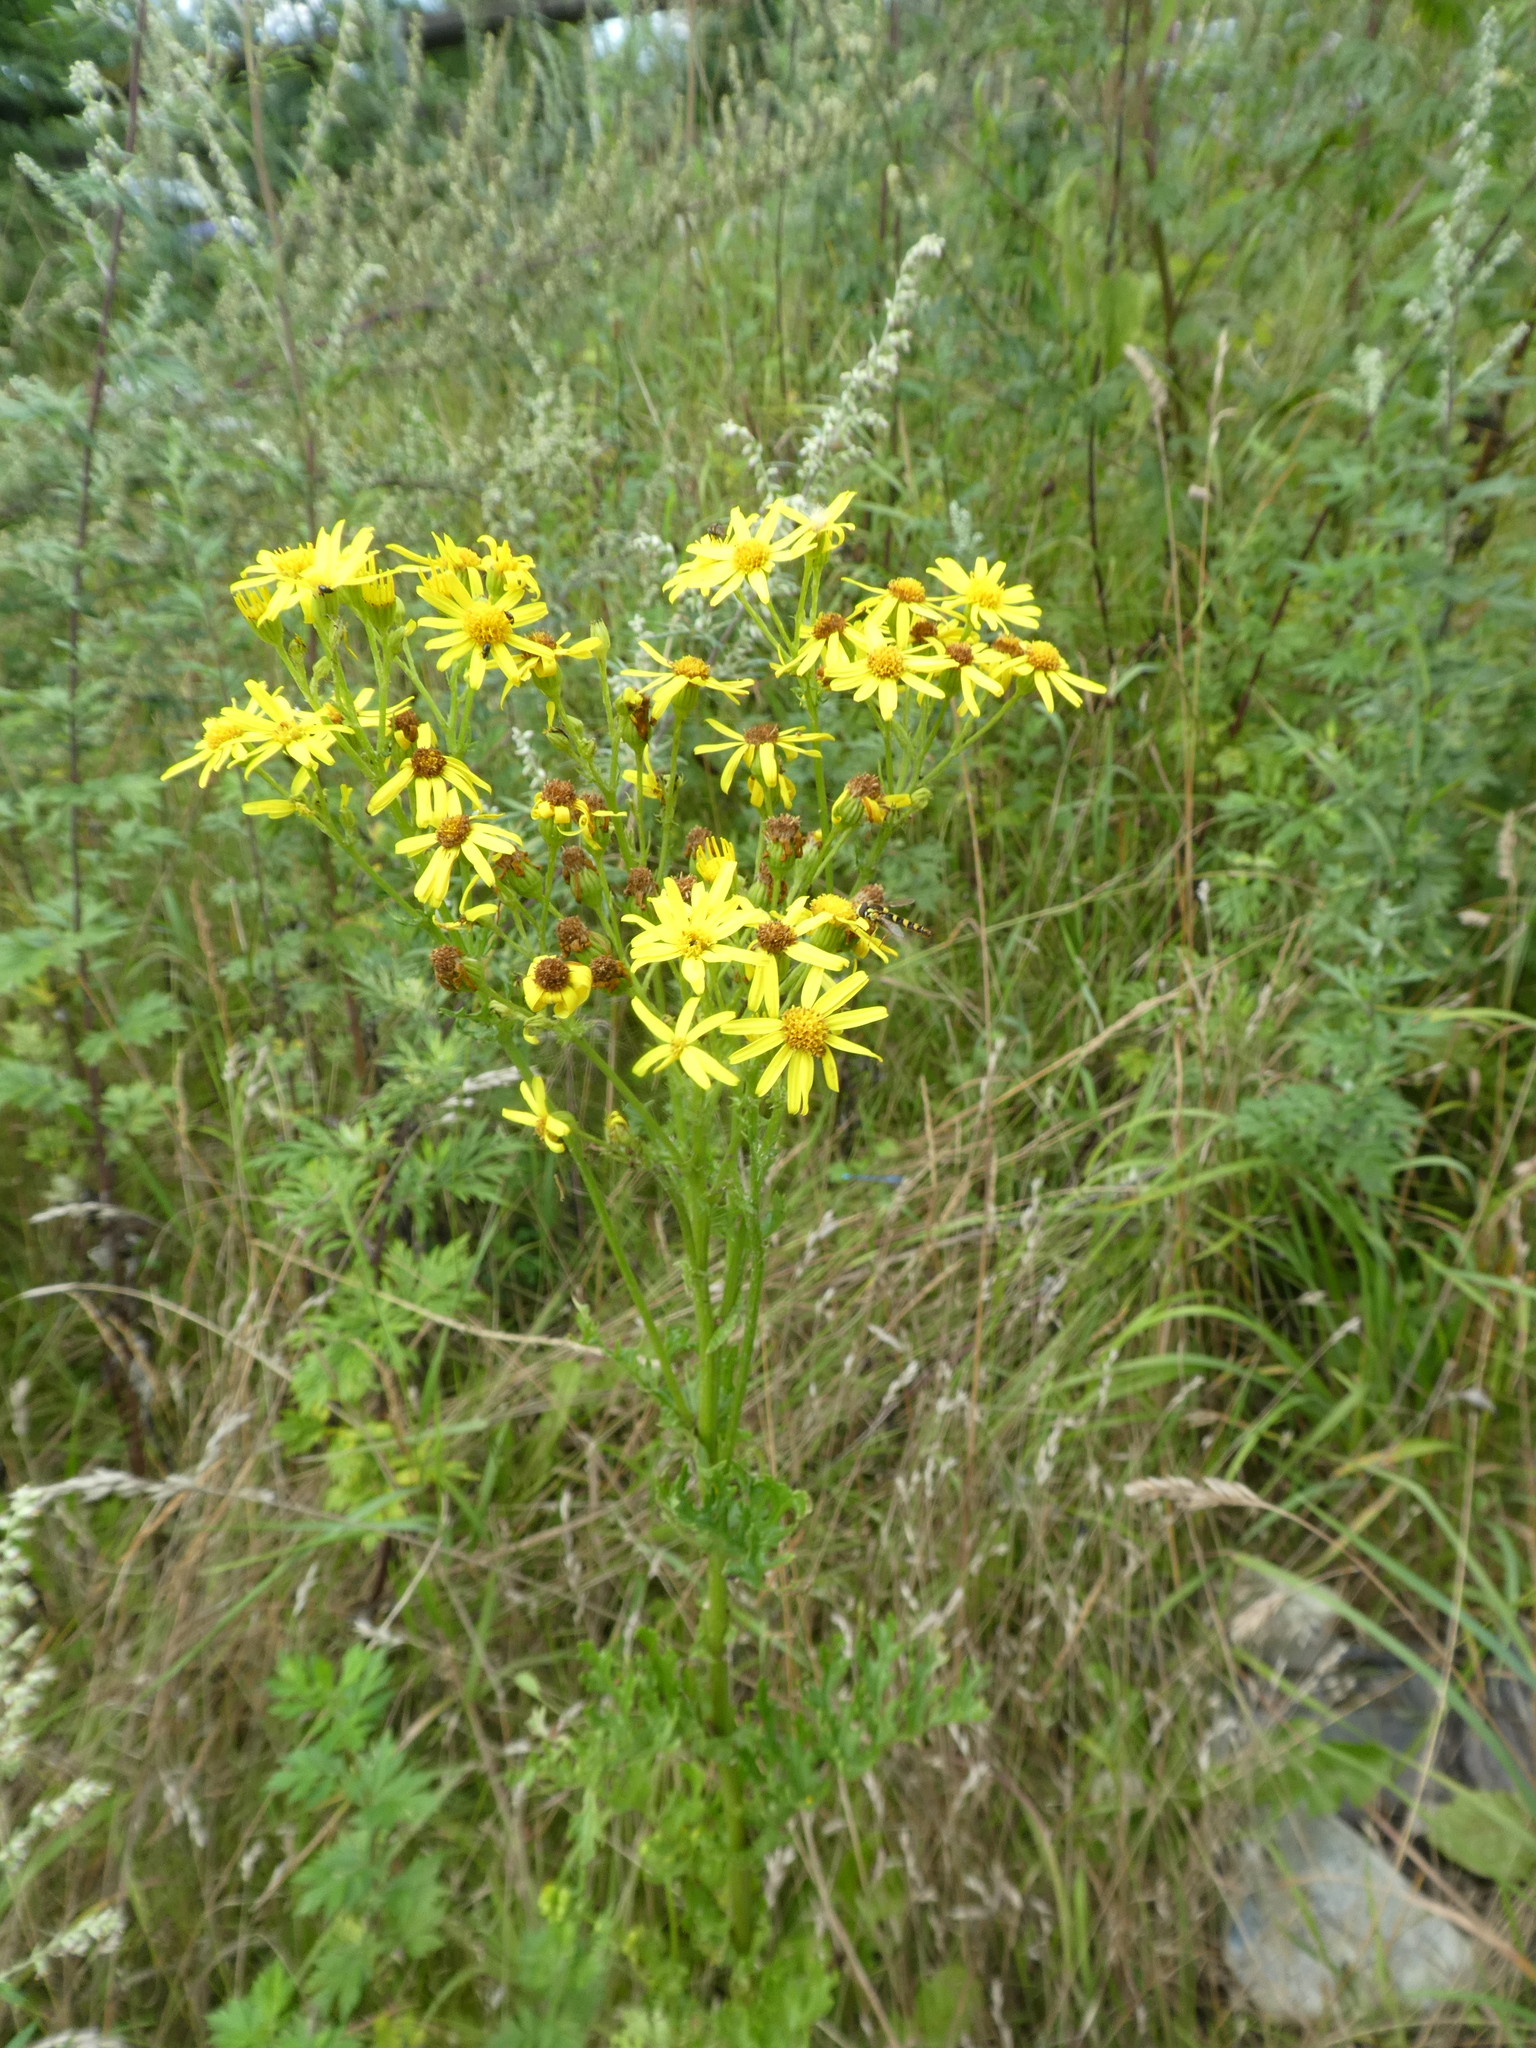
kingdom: Plantae
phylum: Tracheophyta
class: Magnoliopsida
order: Asterales
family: Asteraceae
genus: Jacobaea
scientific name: Jacobaea vulgaris
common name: Stinking willie
